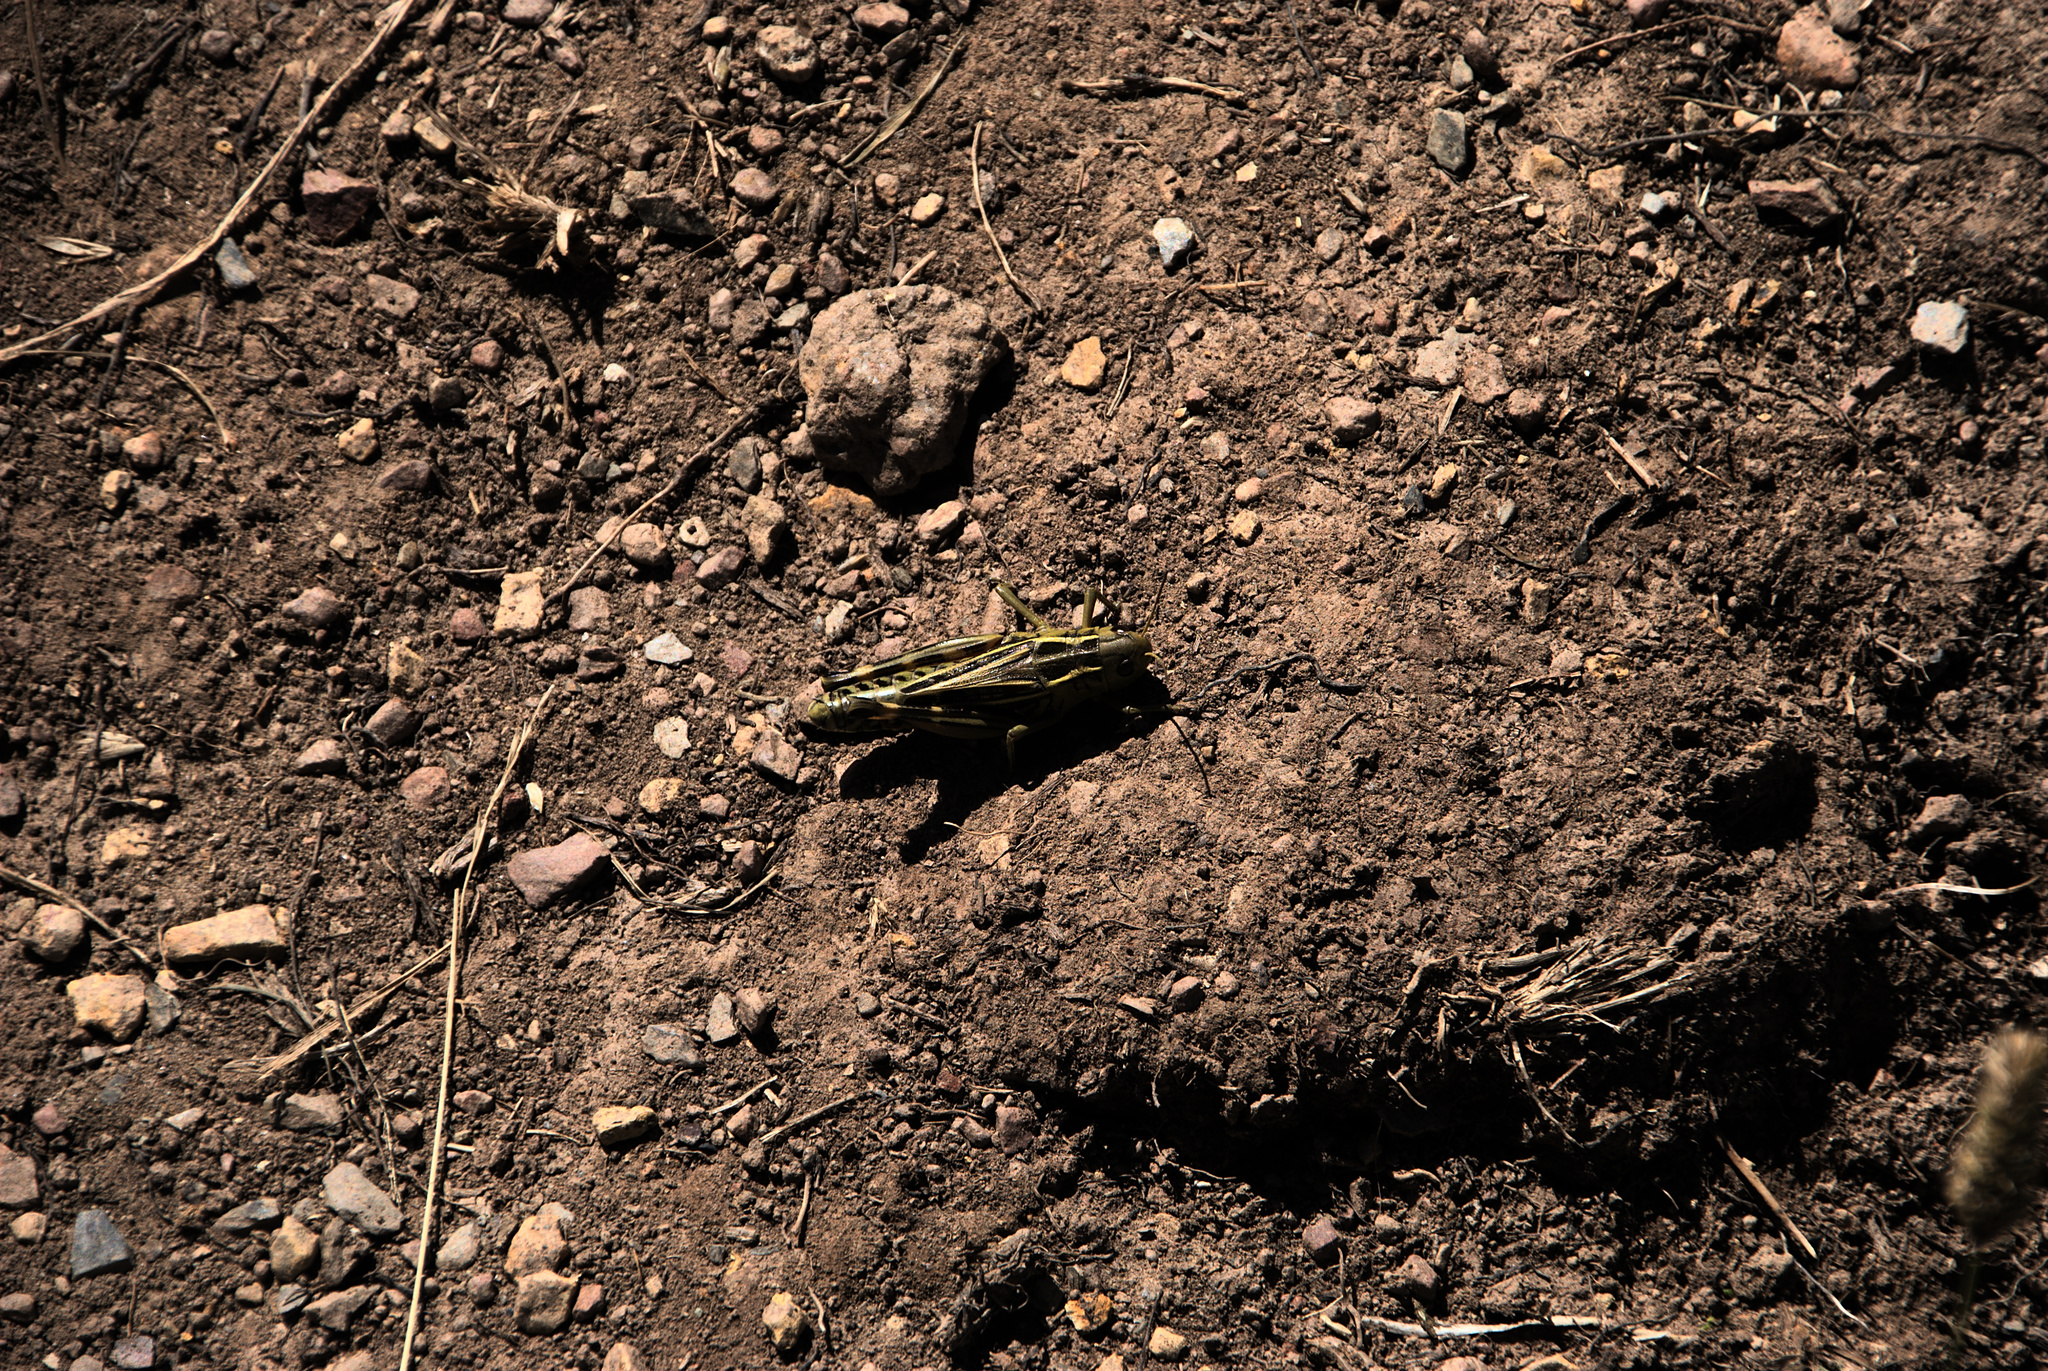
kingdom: Animalia
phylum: Arthropoda
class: Insecta
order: Orthoptera
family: Acrididae
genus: Arcyptera
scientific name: Arcyptera fusca
